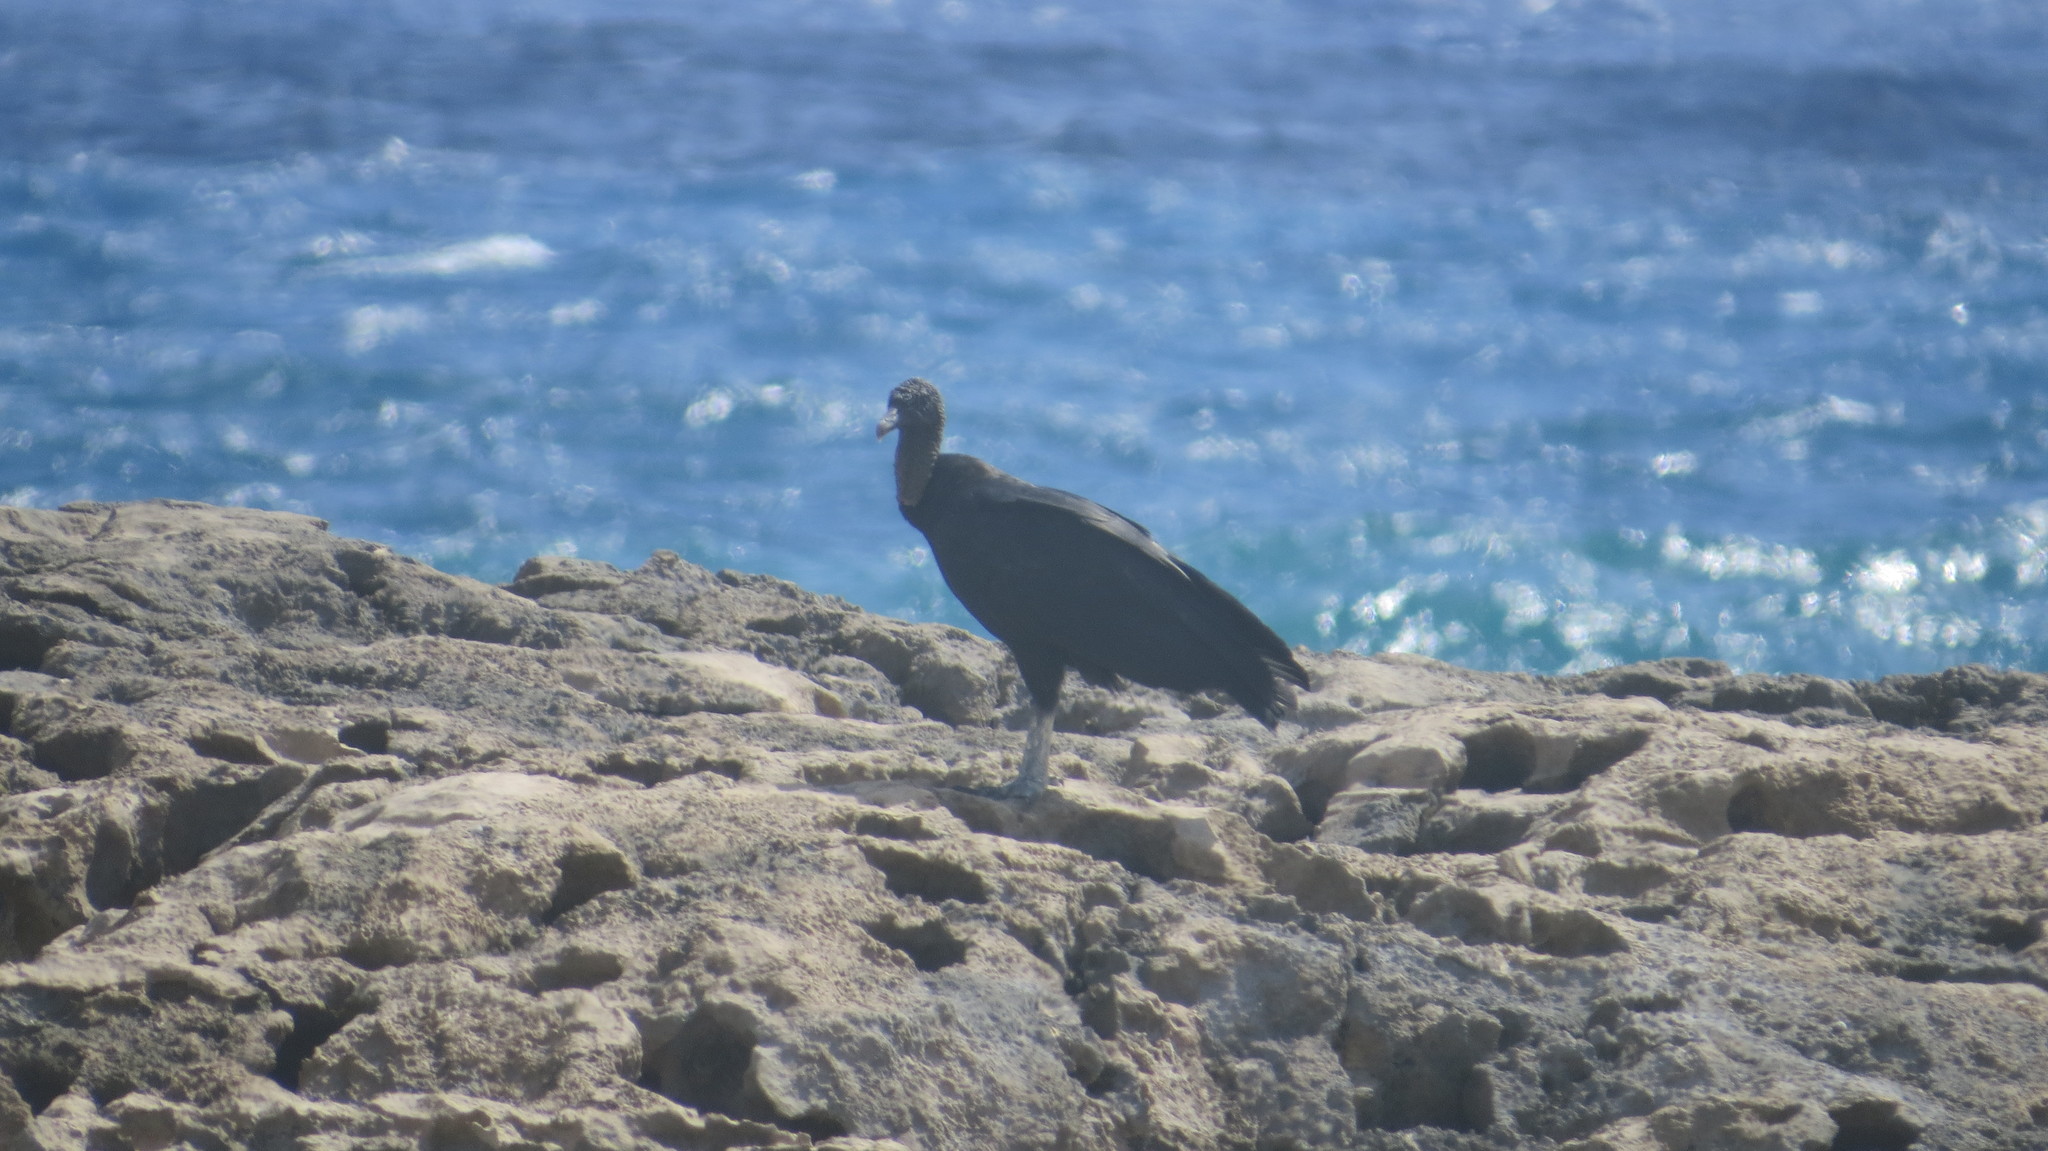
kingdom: Animalia
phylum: Chordata
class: Aves
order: Accipitriformes
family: Cathartidae
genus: Coragyps
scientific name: Coragyps atratus
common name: Black vulture
